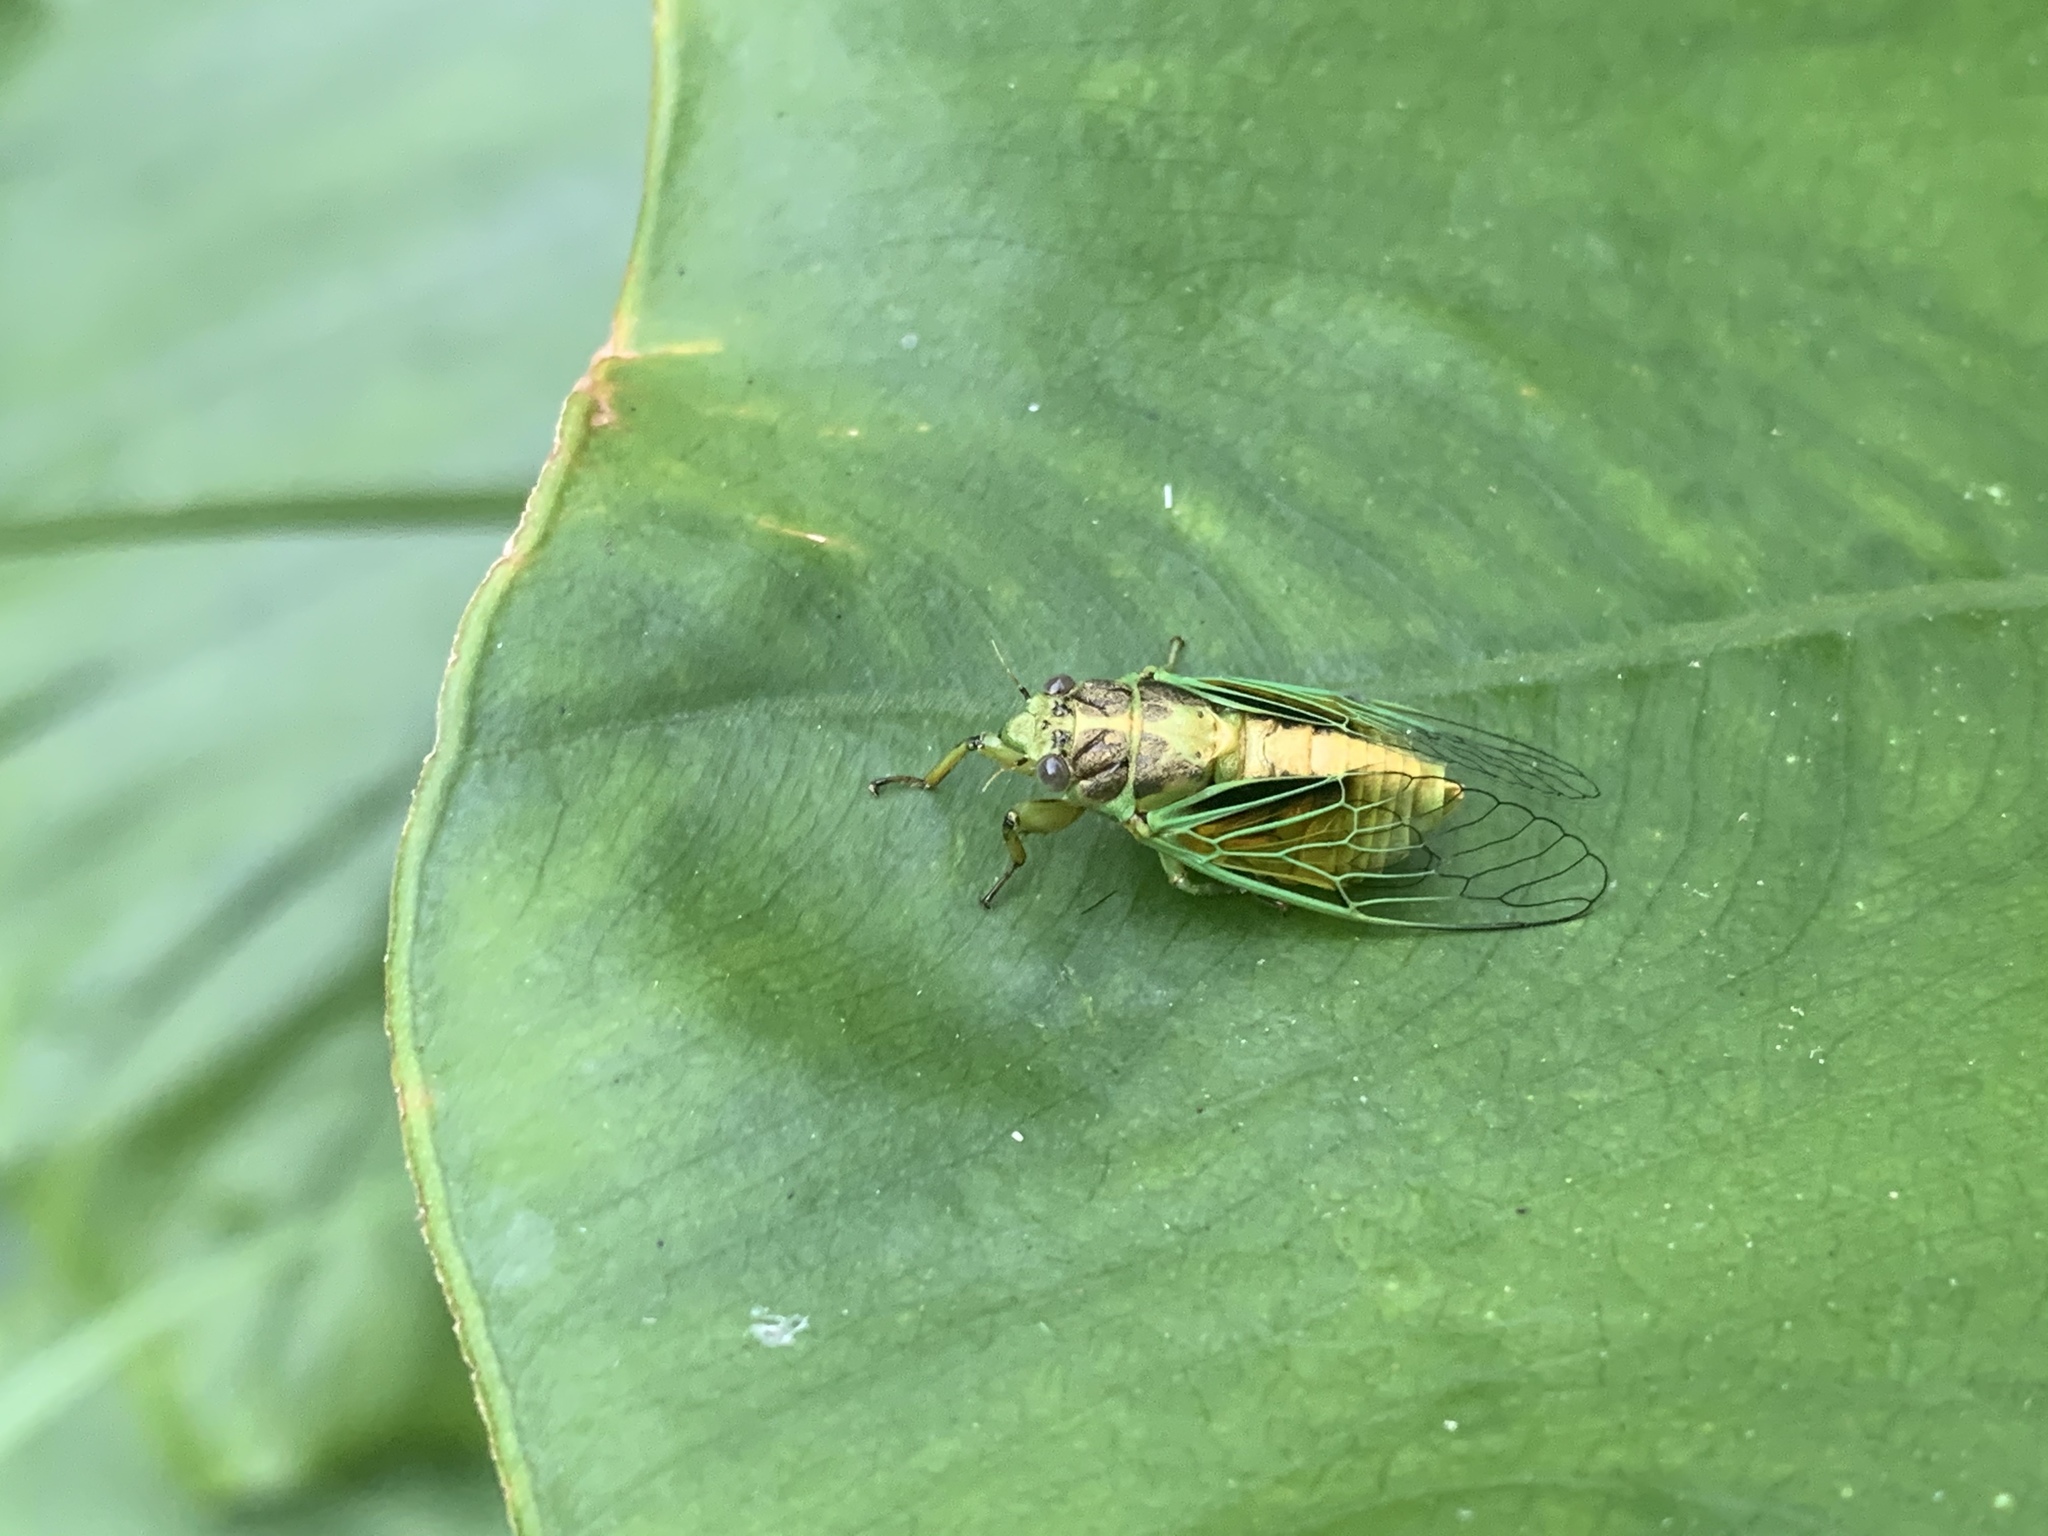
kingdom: Animalia
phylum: Arthropoda
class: Insecta
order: Hemiptera
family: Cicadidae
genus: Mogannia
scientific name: Mogannia hebes
